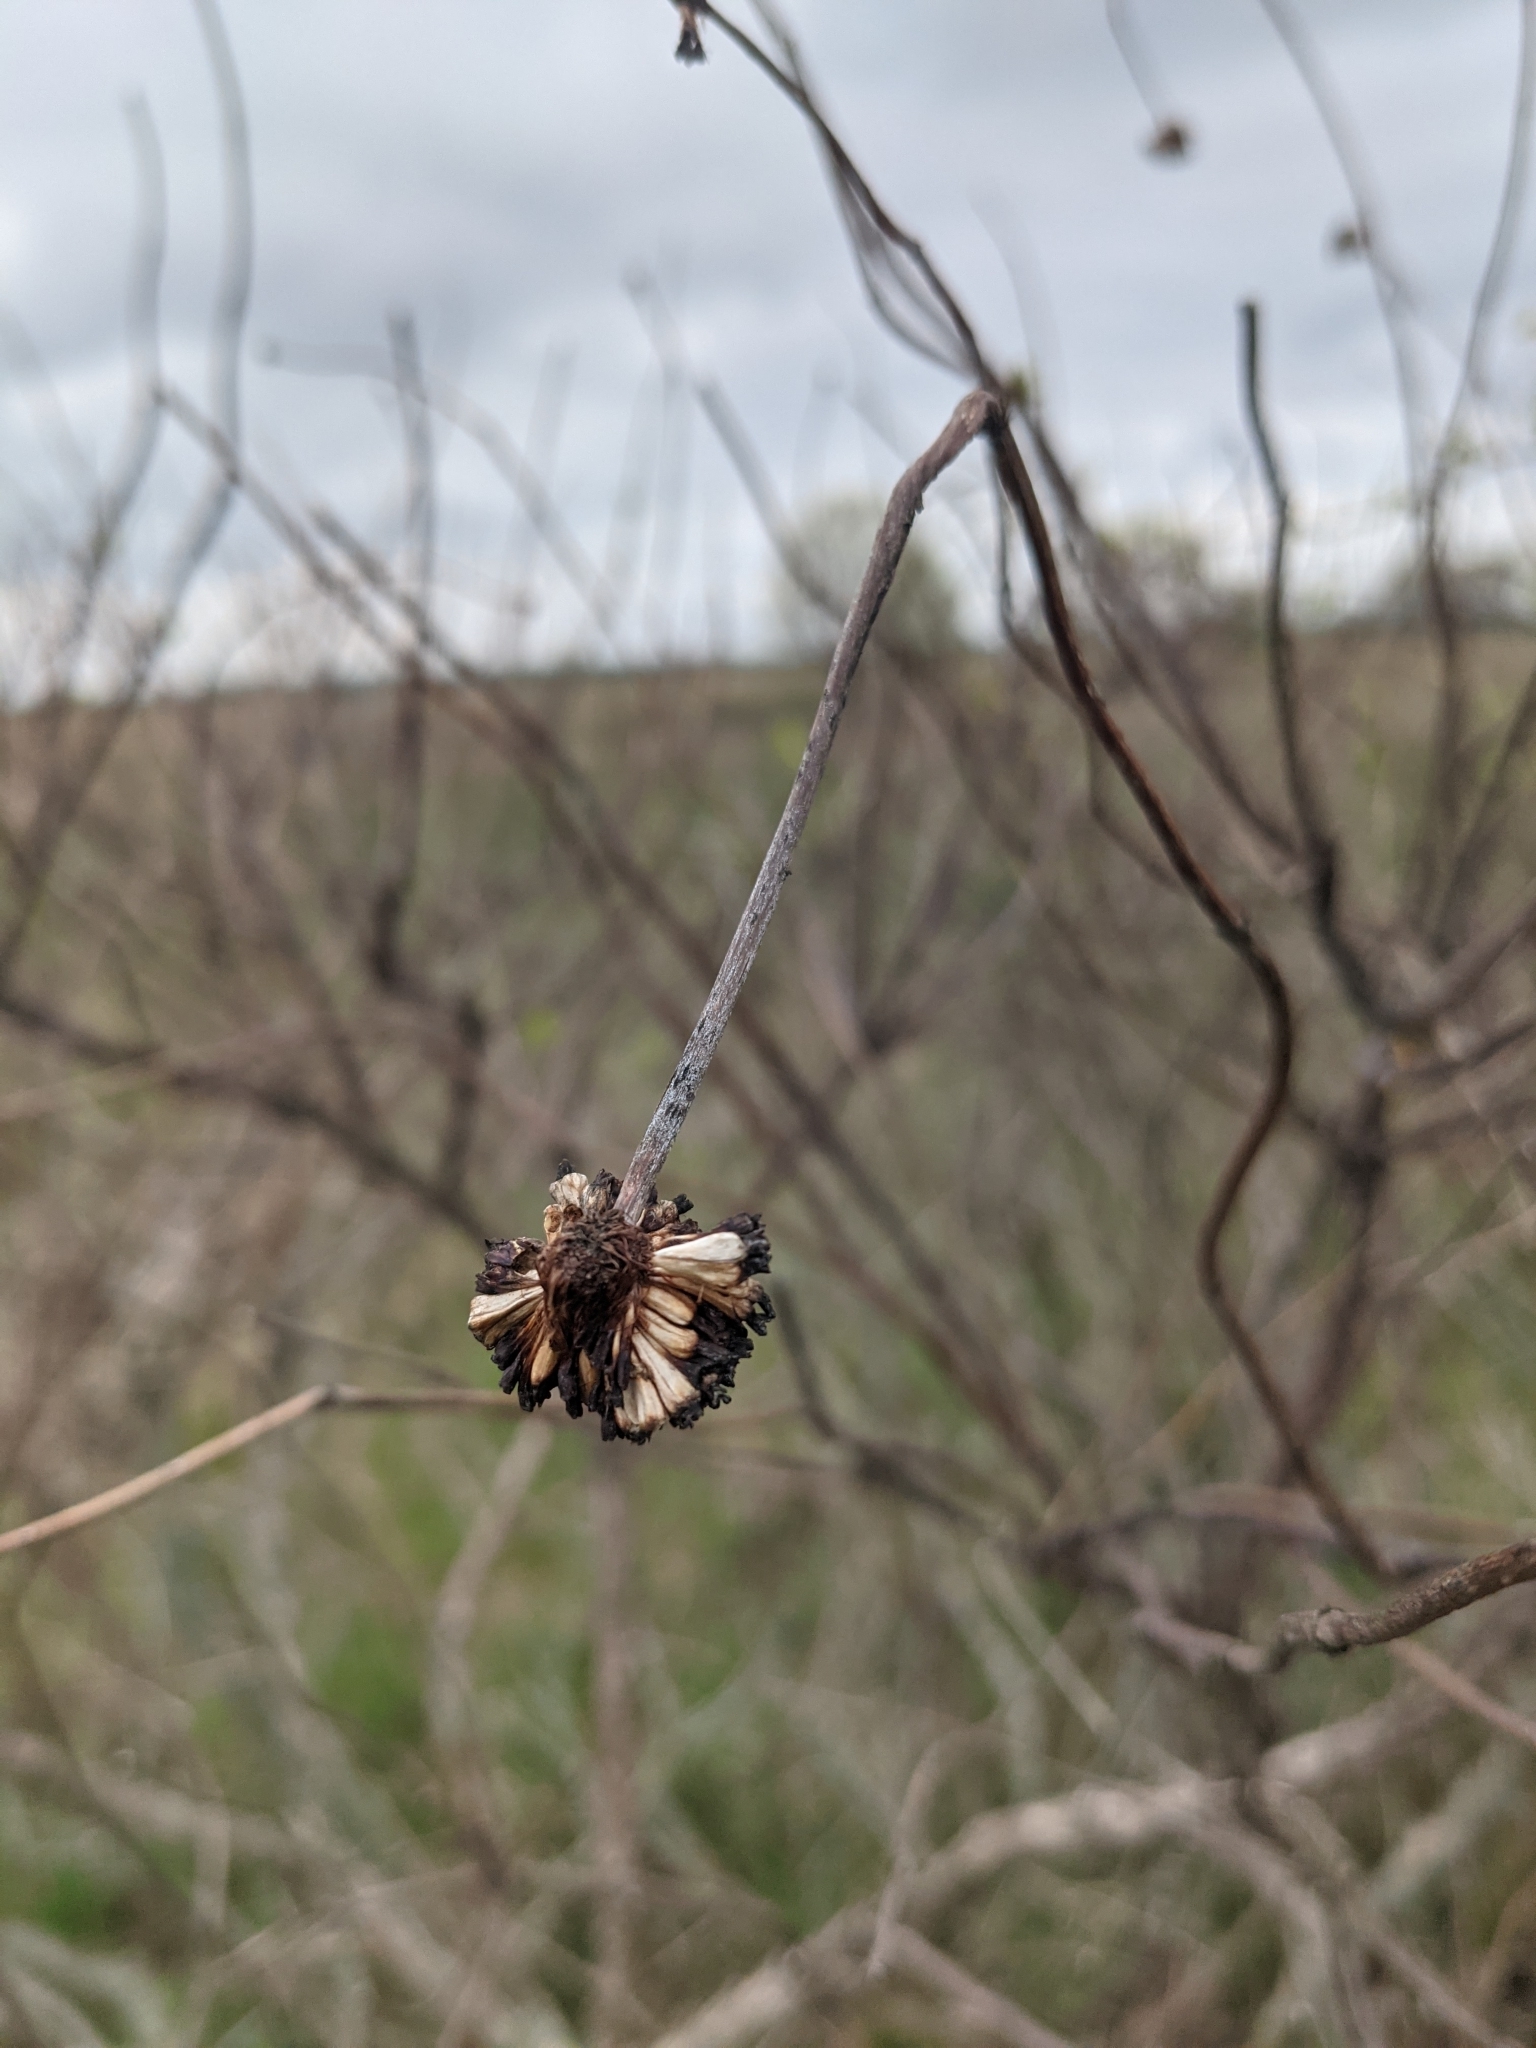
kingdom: Plantae
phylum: Tracheophyta
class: Magnoliopsida
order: Gentianales
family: Rubiaceae
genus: Cephalanthus
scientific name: Cephalanthus occidentalis
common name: Button-willow
